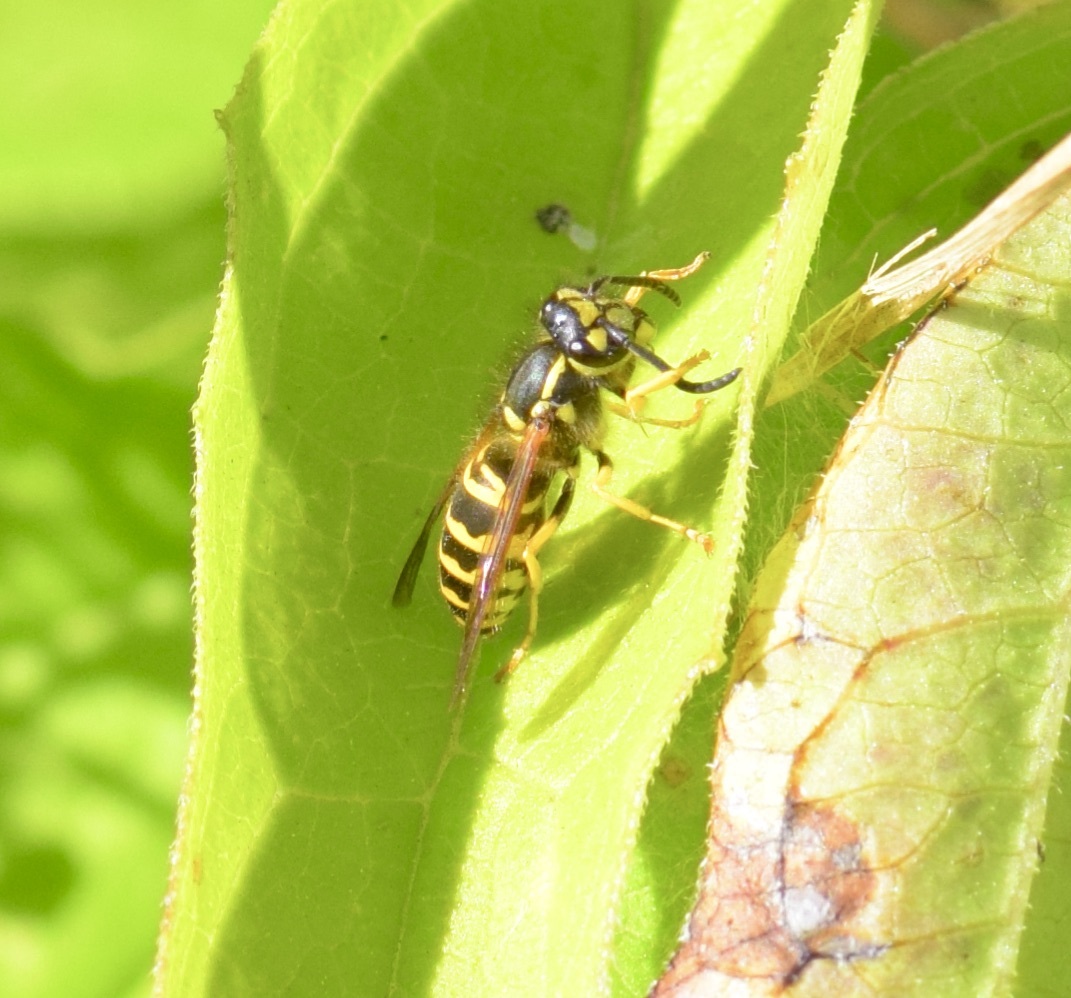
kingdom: Animalia
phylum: Arthropoda
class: Insecta
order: Hymenoptera
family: Vespidae
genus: Vespula
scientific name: Vespula maculifrons
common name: Eastern yellowjacket
